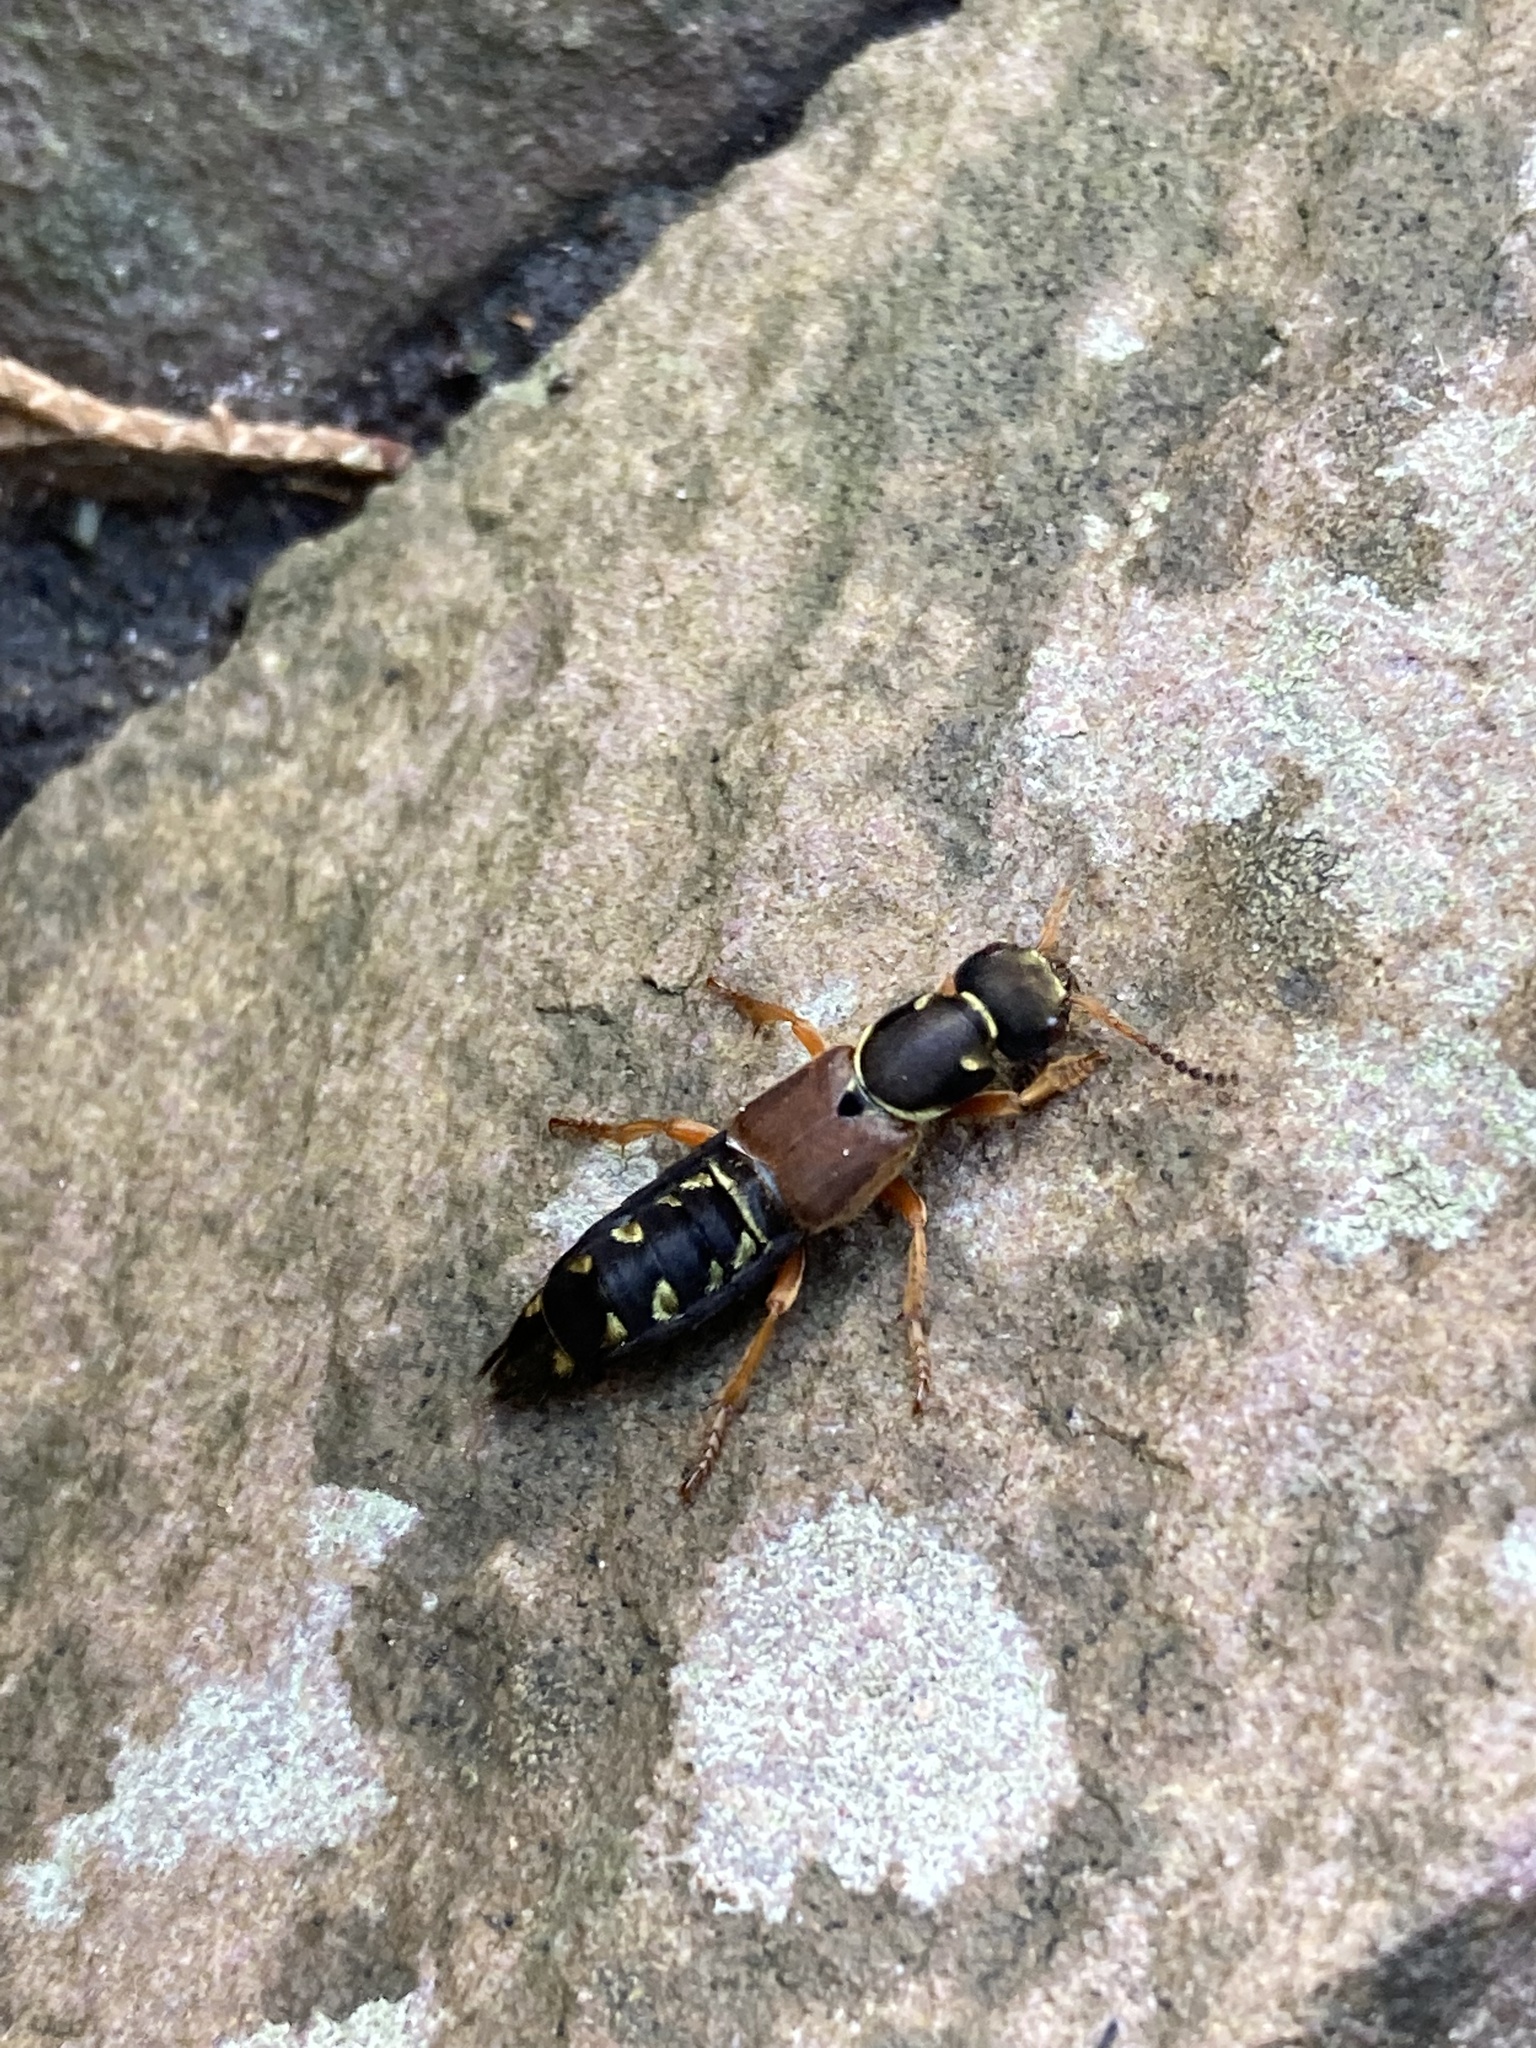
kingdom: Animalia
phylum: Arthropoda
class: Insecta
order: Coleoptera
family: Staphylinidae
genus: Staphylinus
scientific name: Staphylinus dimidiaticornis
